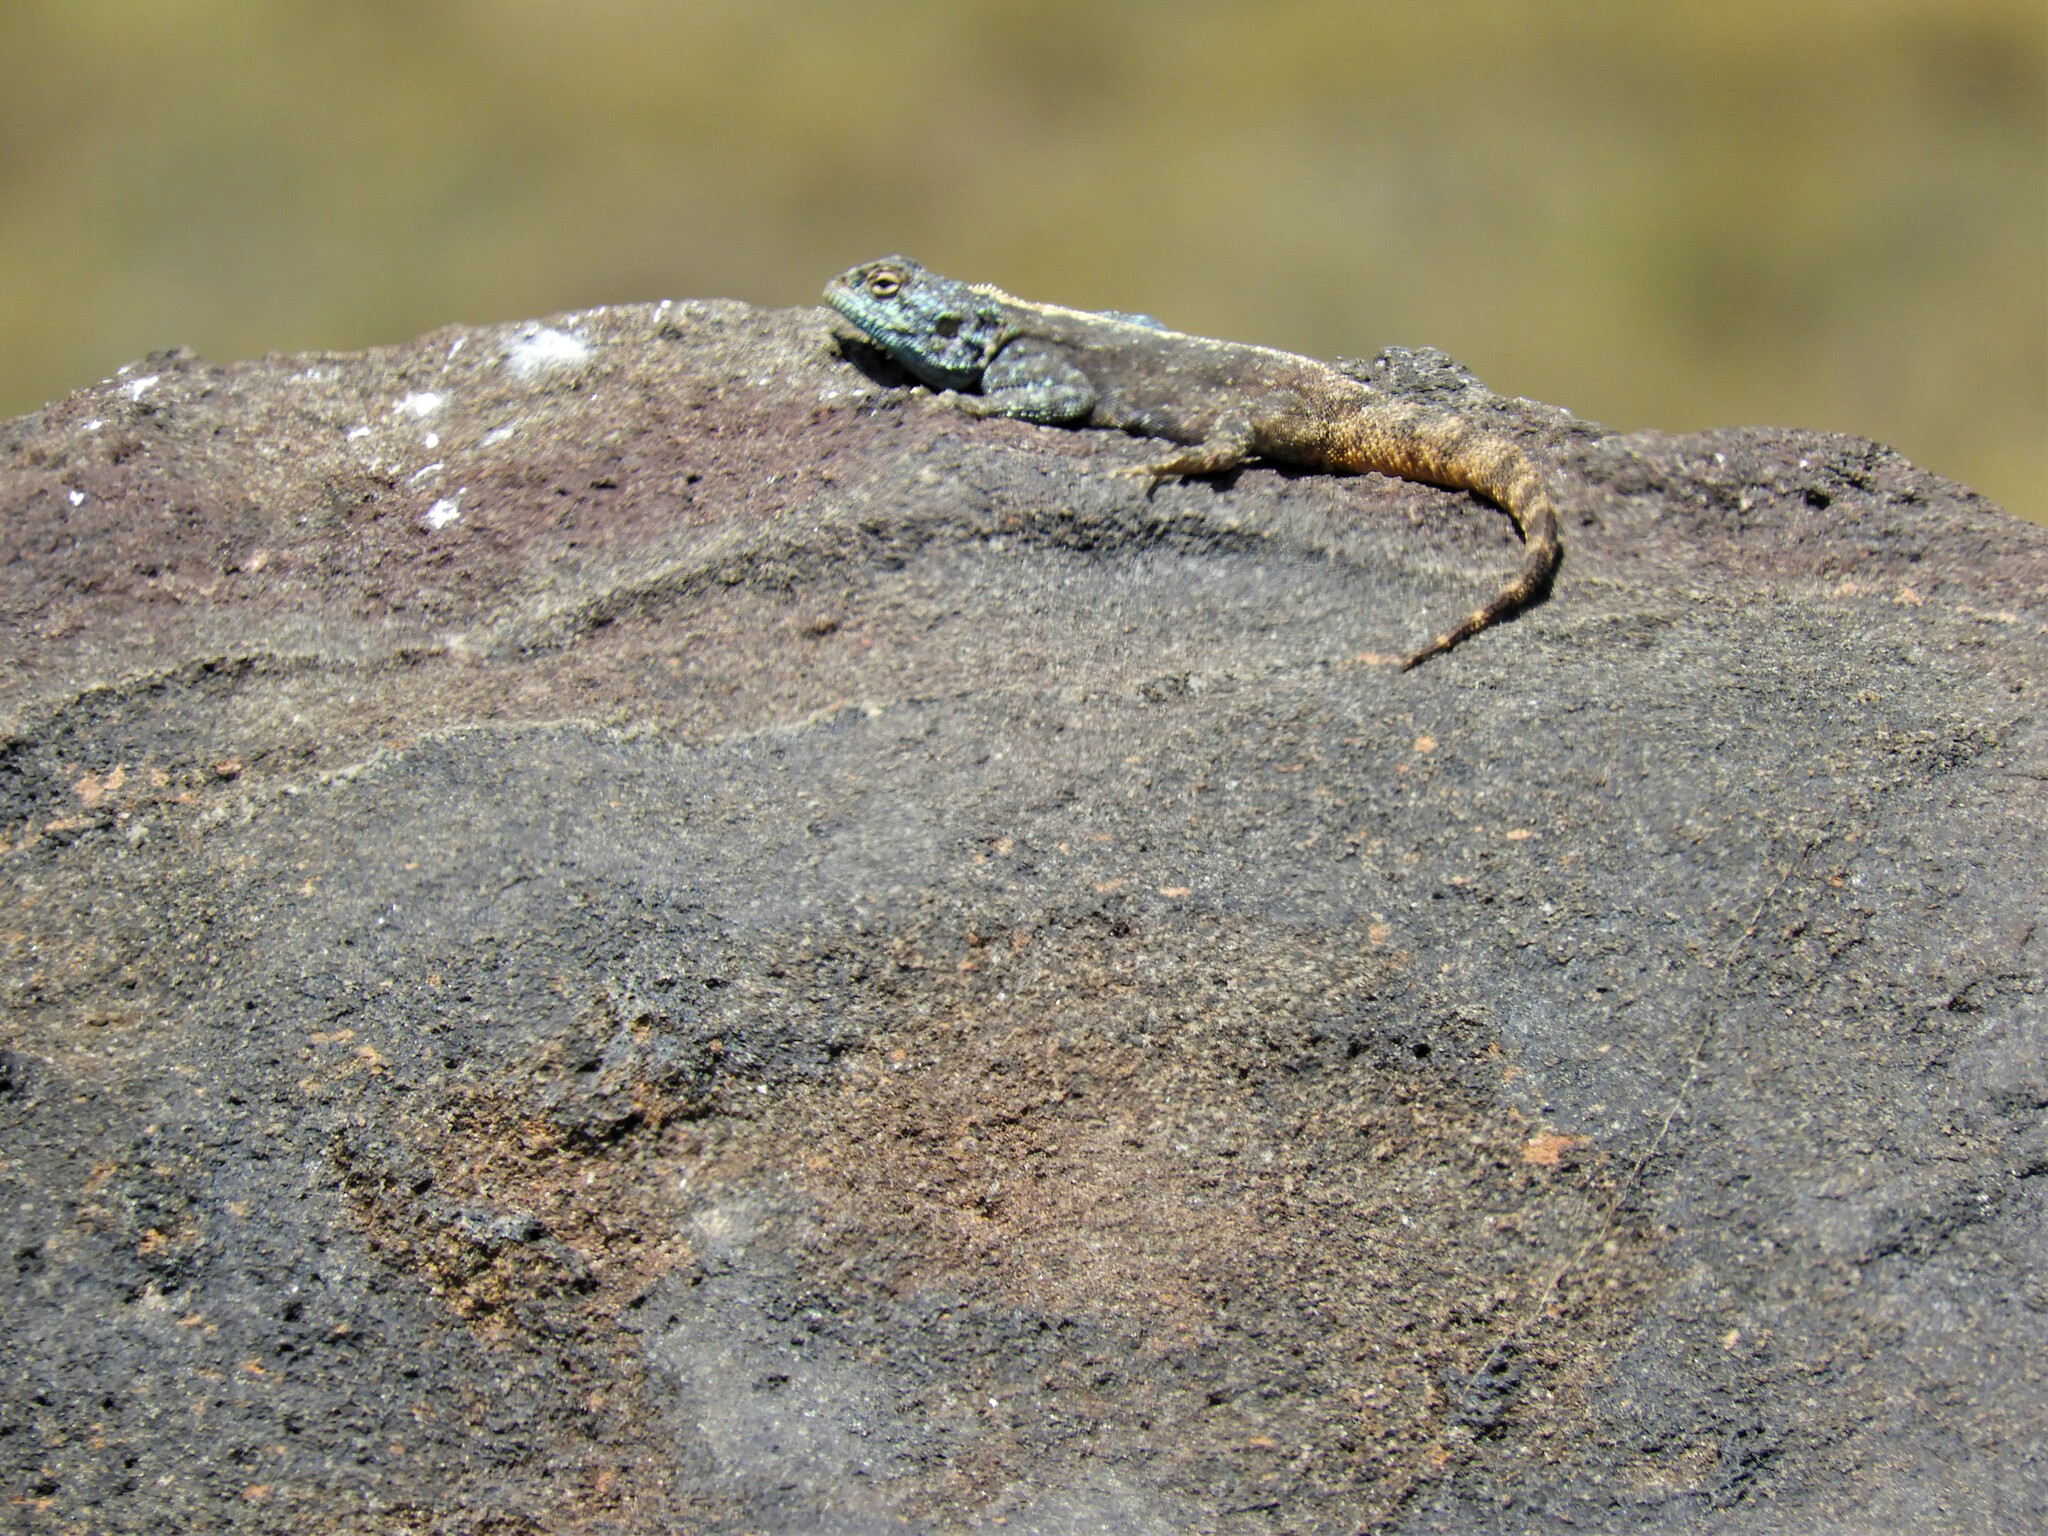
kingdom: Animalia
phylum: Chordata
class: Squamata
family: Agamidae
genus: Agama
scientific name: Agama atra
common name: Southern african rock agama
